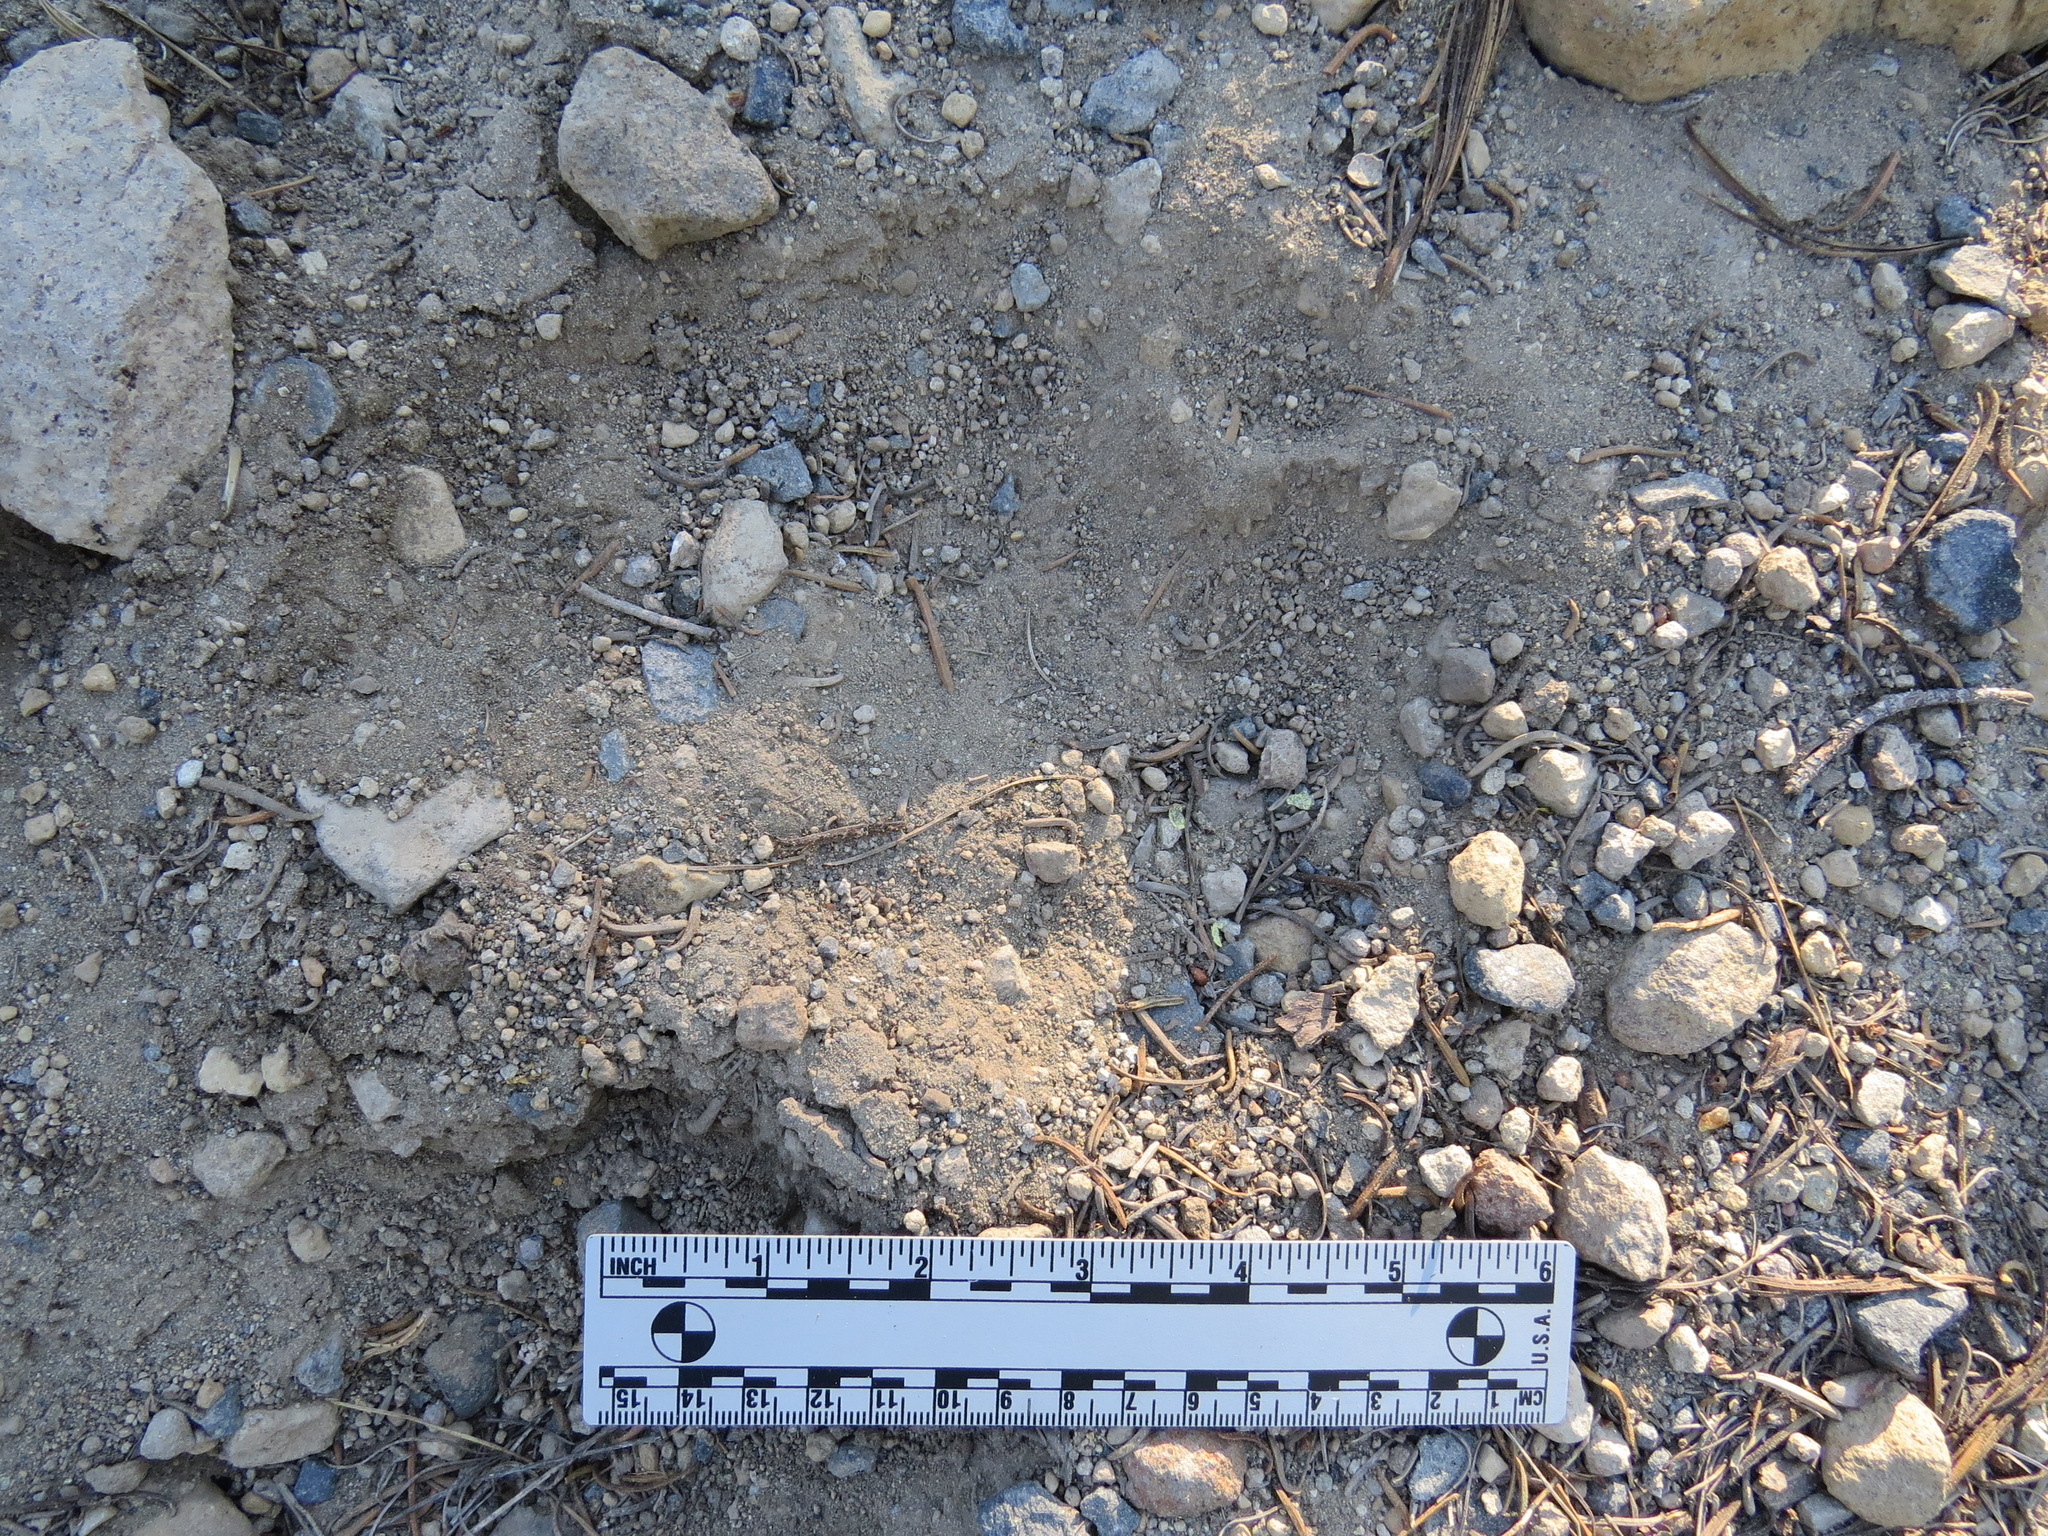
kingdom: Animalia
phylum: Chordata
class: Mammalia
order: Carnivora
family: Ursidae
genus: Ursus
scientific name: Ursus americanus
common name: American black bear
